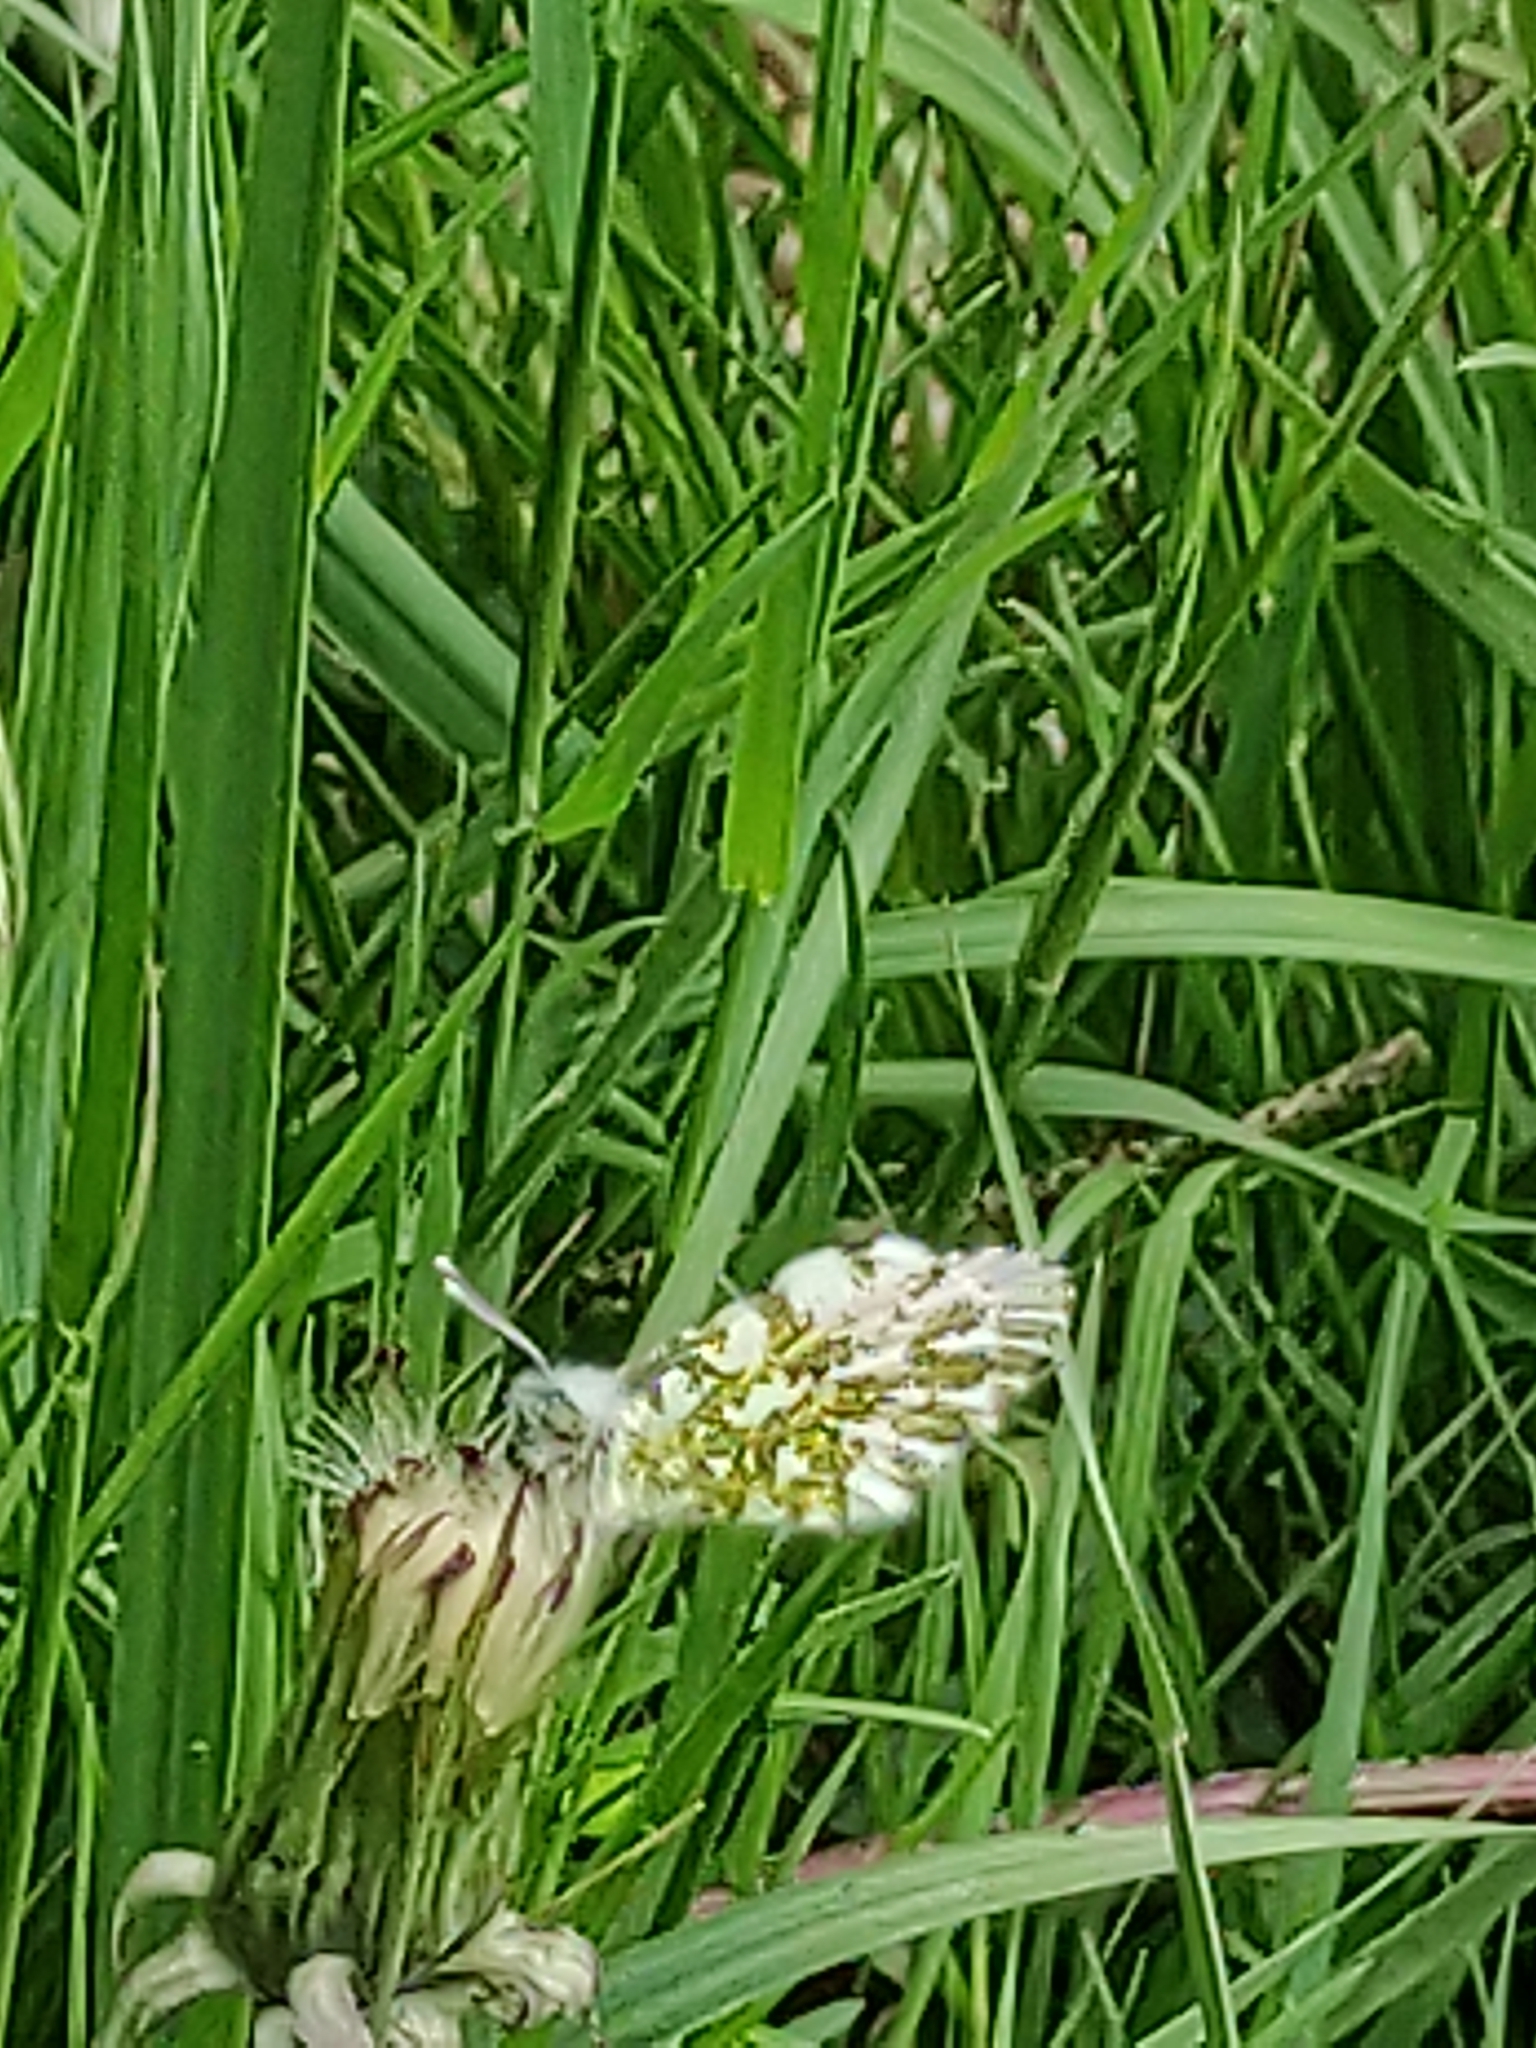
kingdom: Animalia
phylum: Arthropoda
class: Insecta
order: Lepidoptera
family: Pieridae
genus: Anthocharis
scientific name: Anthocharis cardamines
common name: Orange-tip
